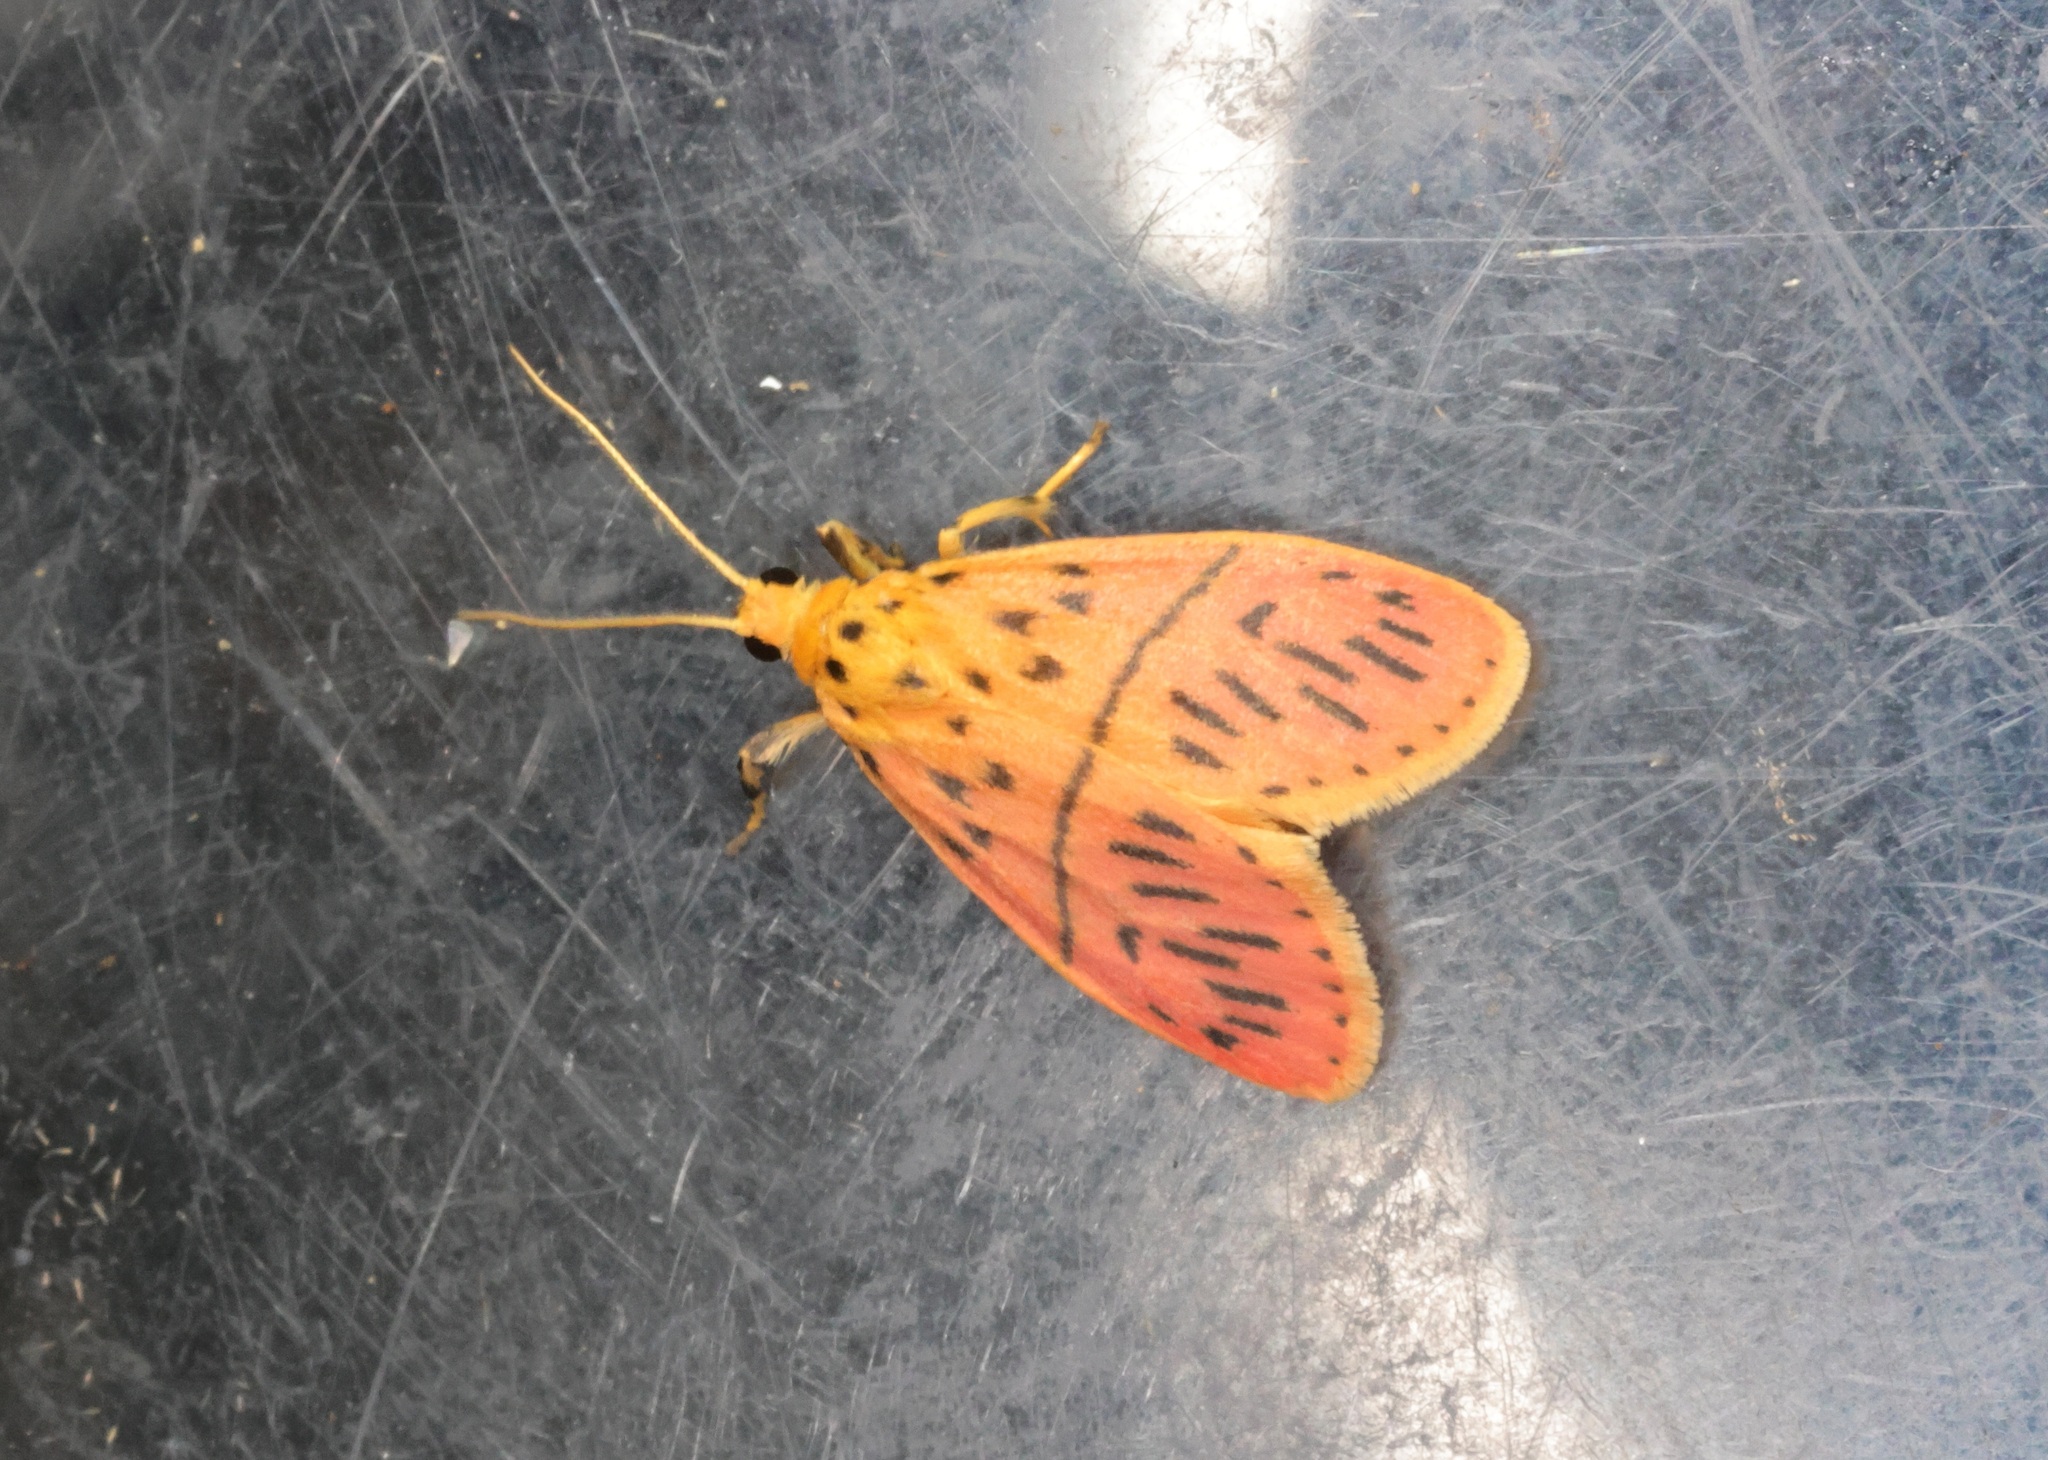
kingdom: Animalia
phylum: Arthropoda
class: Insecta
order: Lepidoptera
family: Erebidae
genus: Miltochrista
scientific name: Miltochrista acteola
